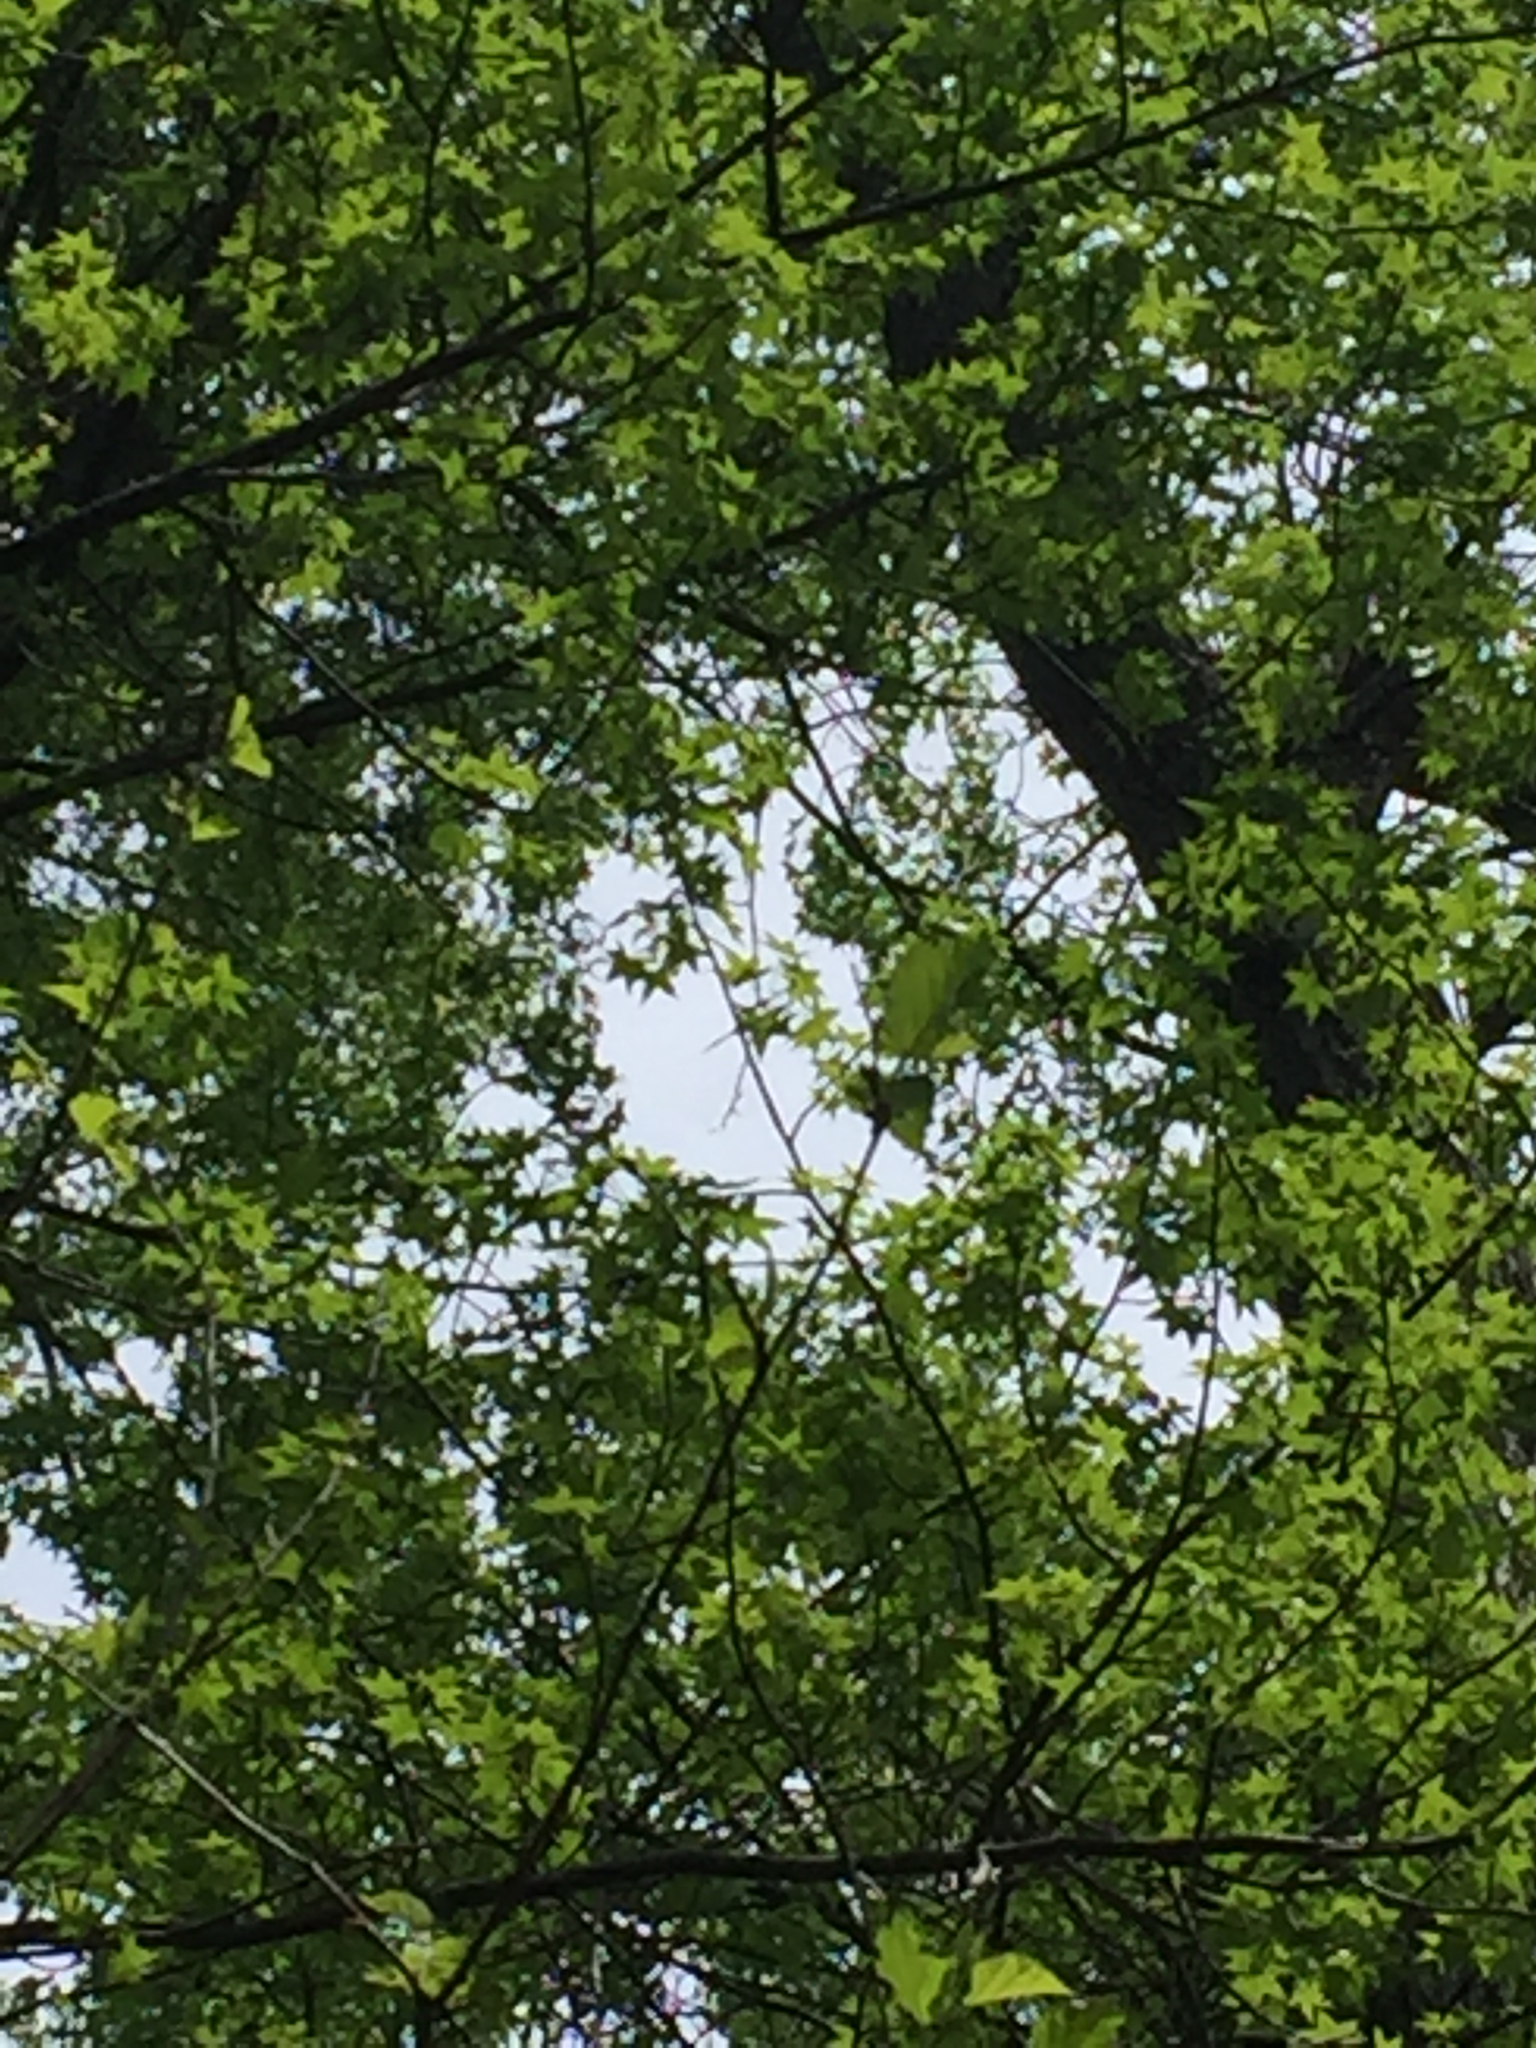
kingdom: Plantae
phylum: Tracheophyta
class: Magnoliopsida
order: Saxifragales
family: Altingiaceae
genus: Liquidambar
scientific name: Liquidambar styraciflua
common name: Sweet gum
